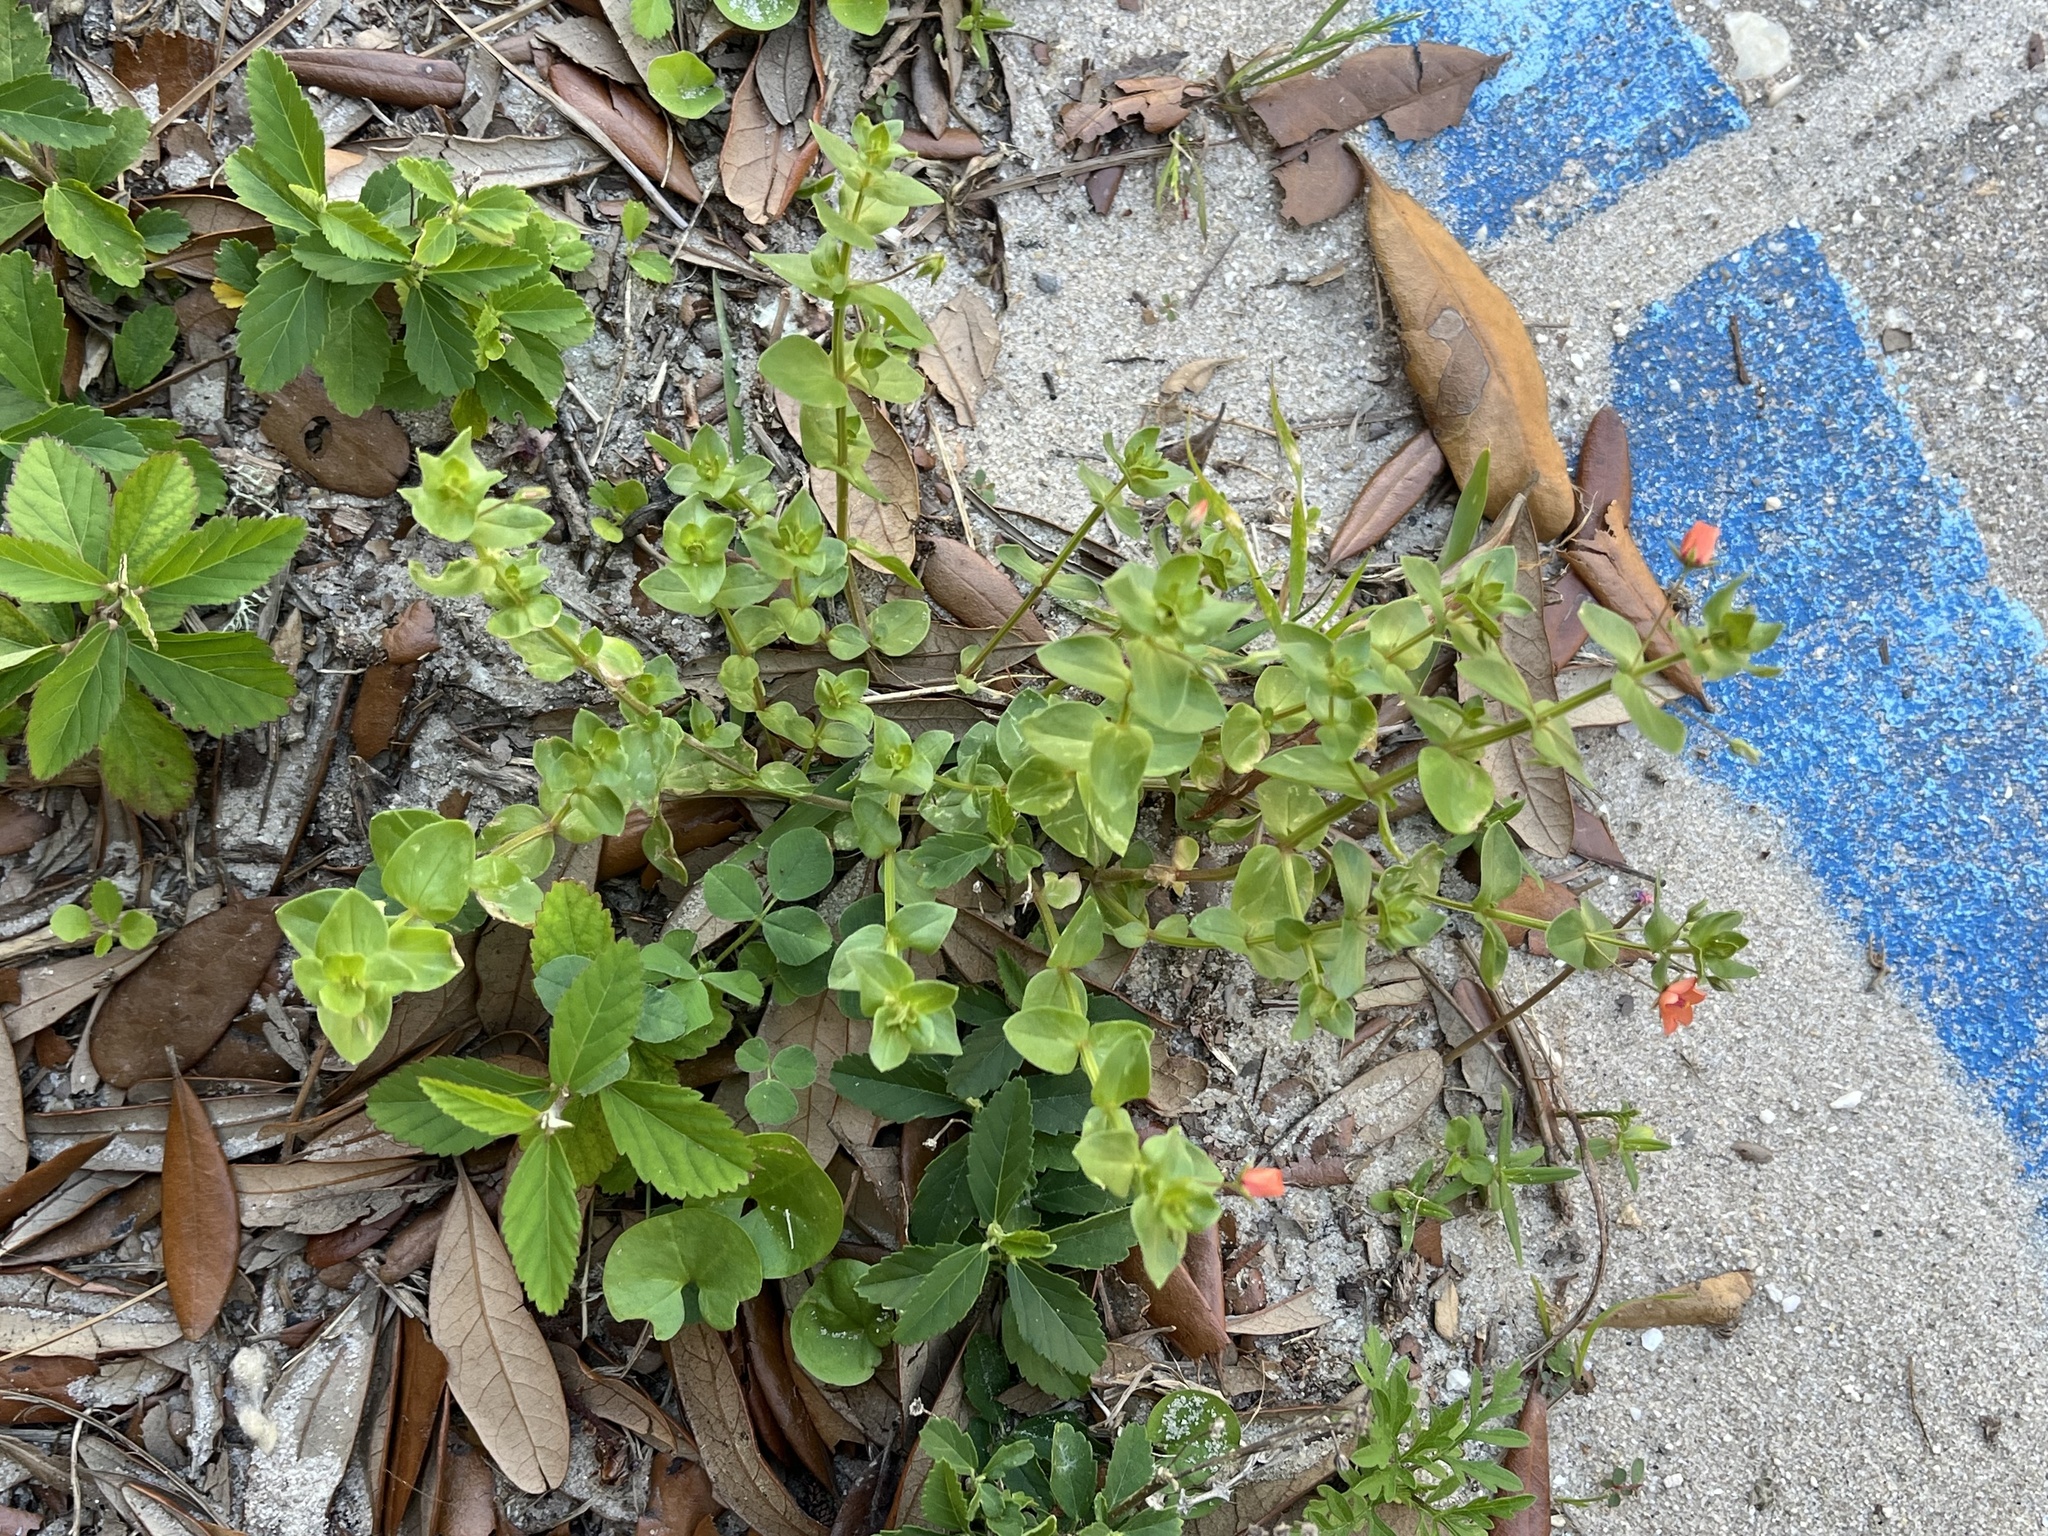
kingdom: Plantae
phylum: Tracheophyta
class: Magnoliopsida
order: Ericales
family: Primulaceae
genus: Lysimachia
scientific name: Lysimachia arvensis
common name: Scarlet pimpernel
